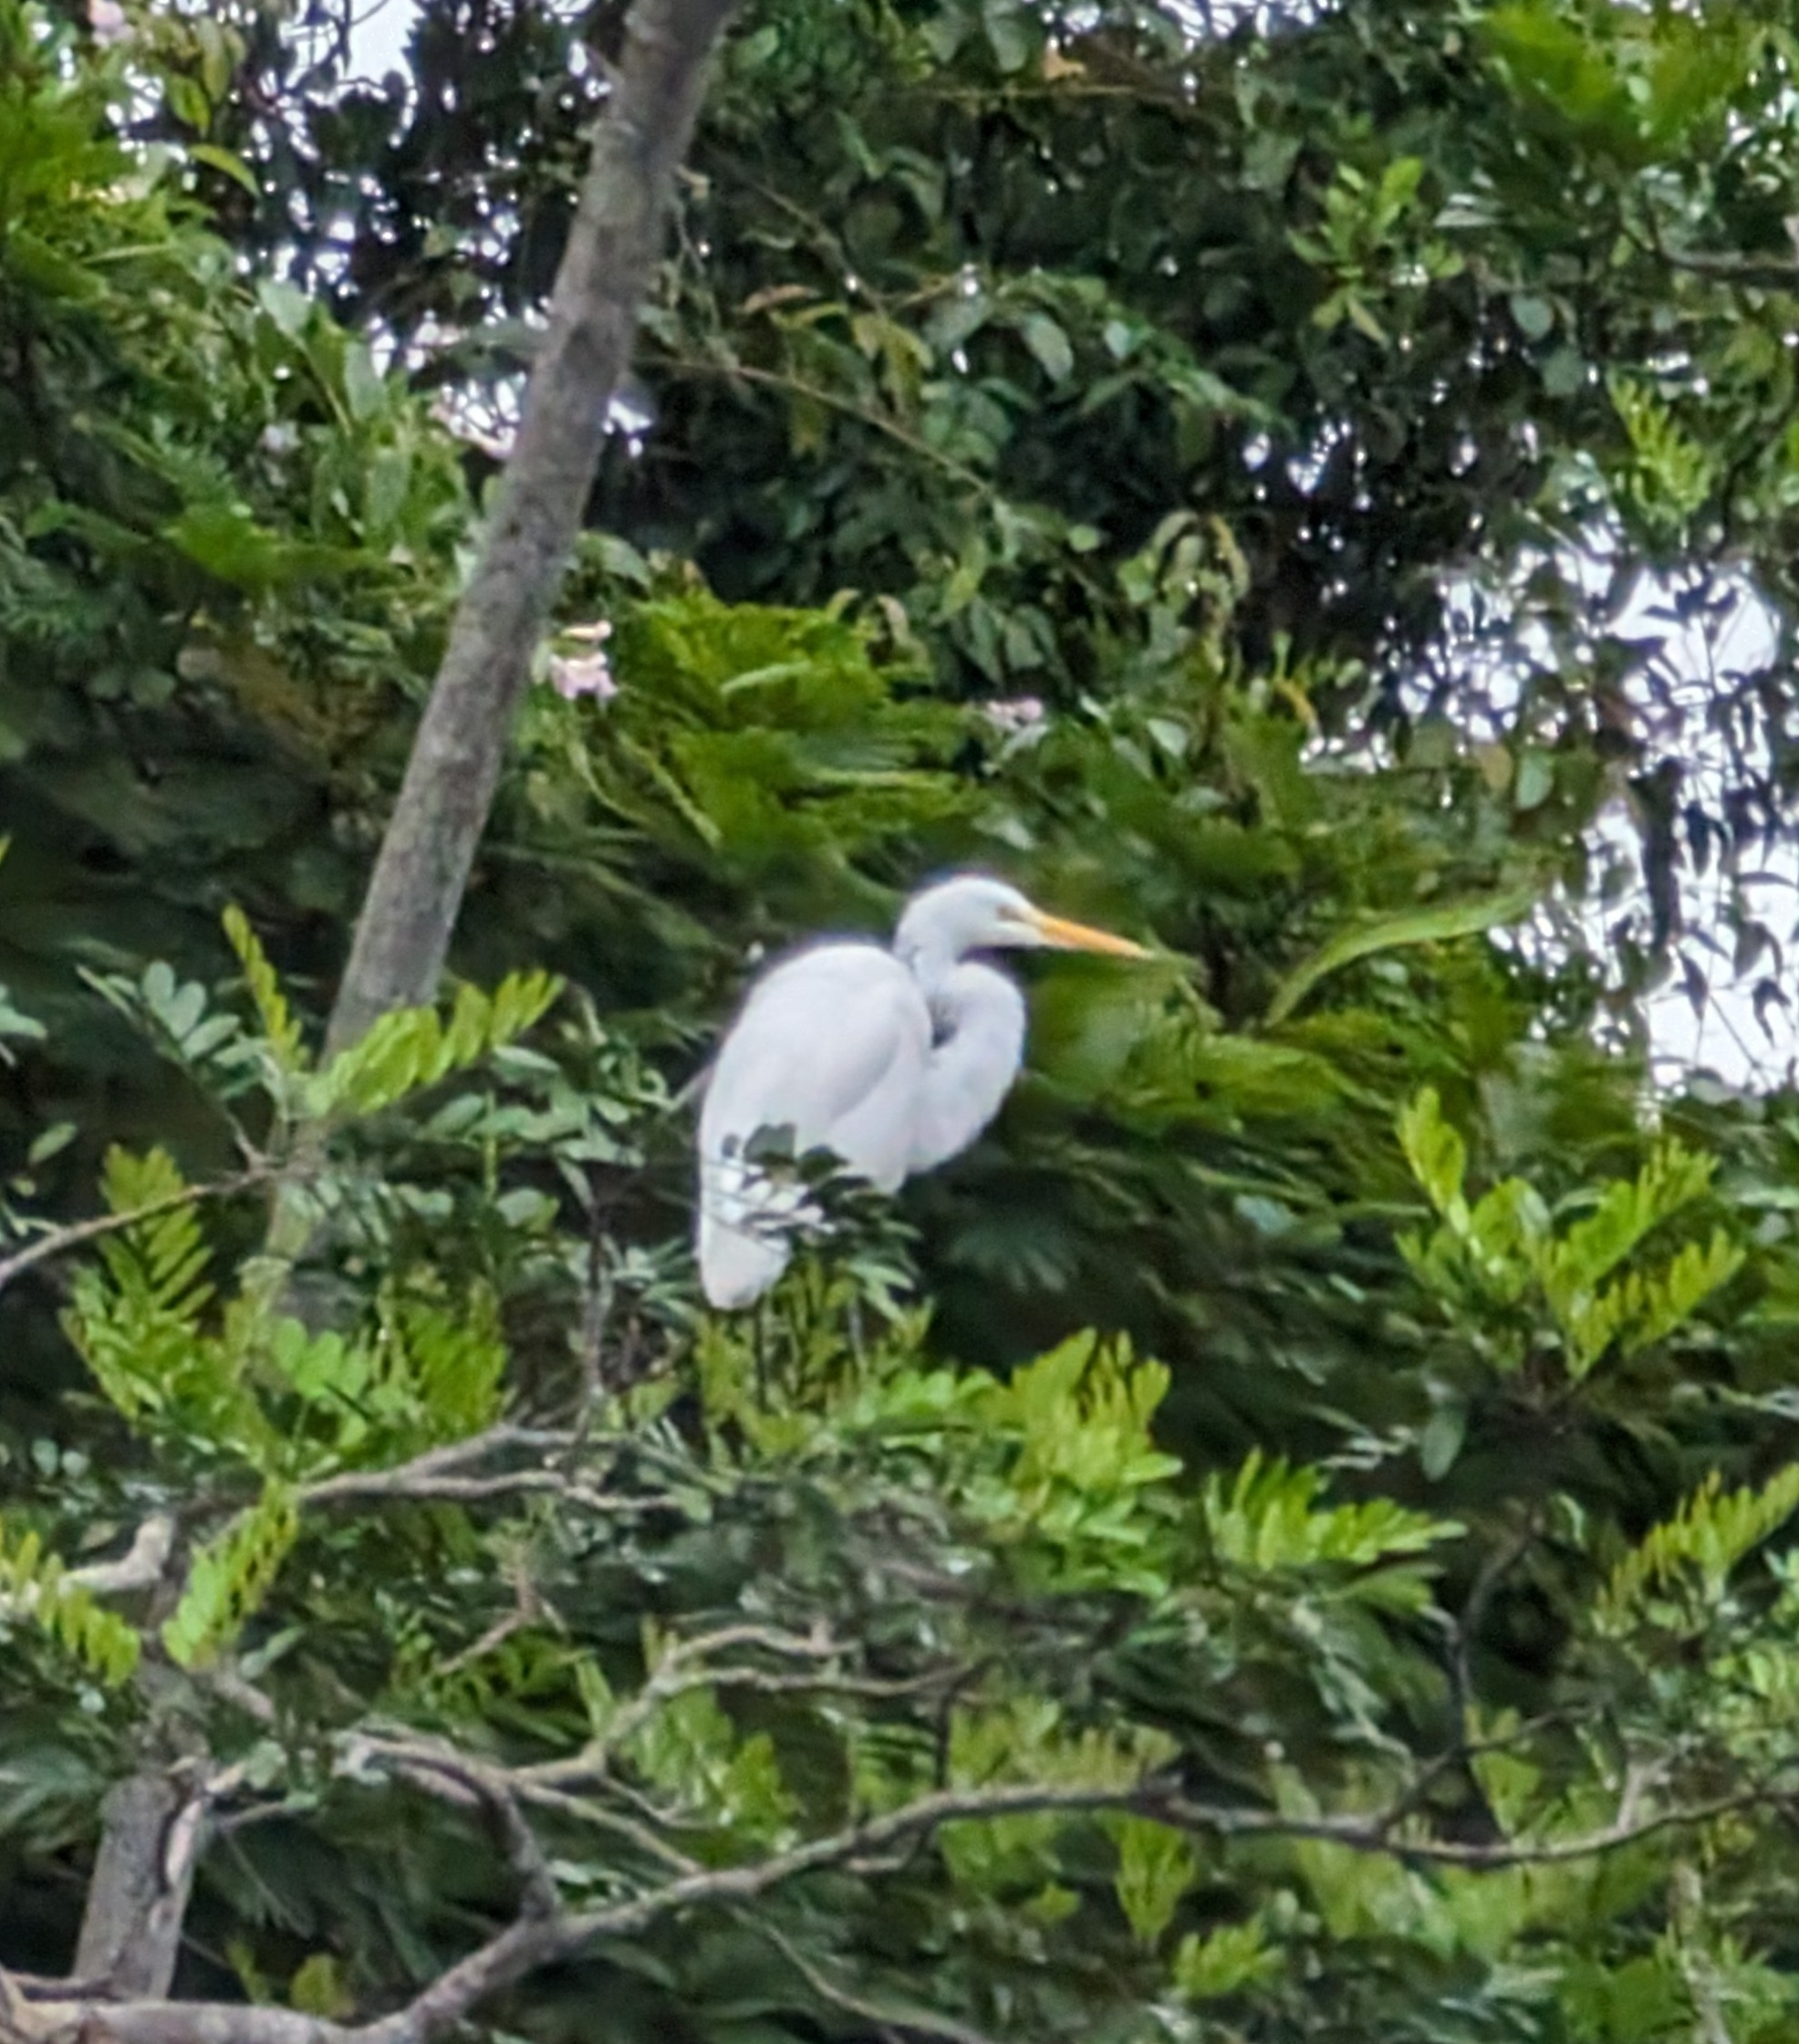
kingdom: Animalia
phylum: Chordata
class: Aves
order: Pelecaniformes
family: Ardeidae
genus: Ardea
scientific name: Ardea alba
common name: Great egret
